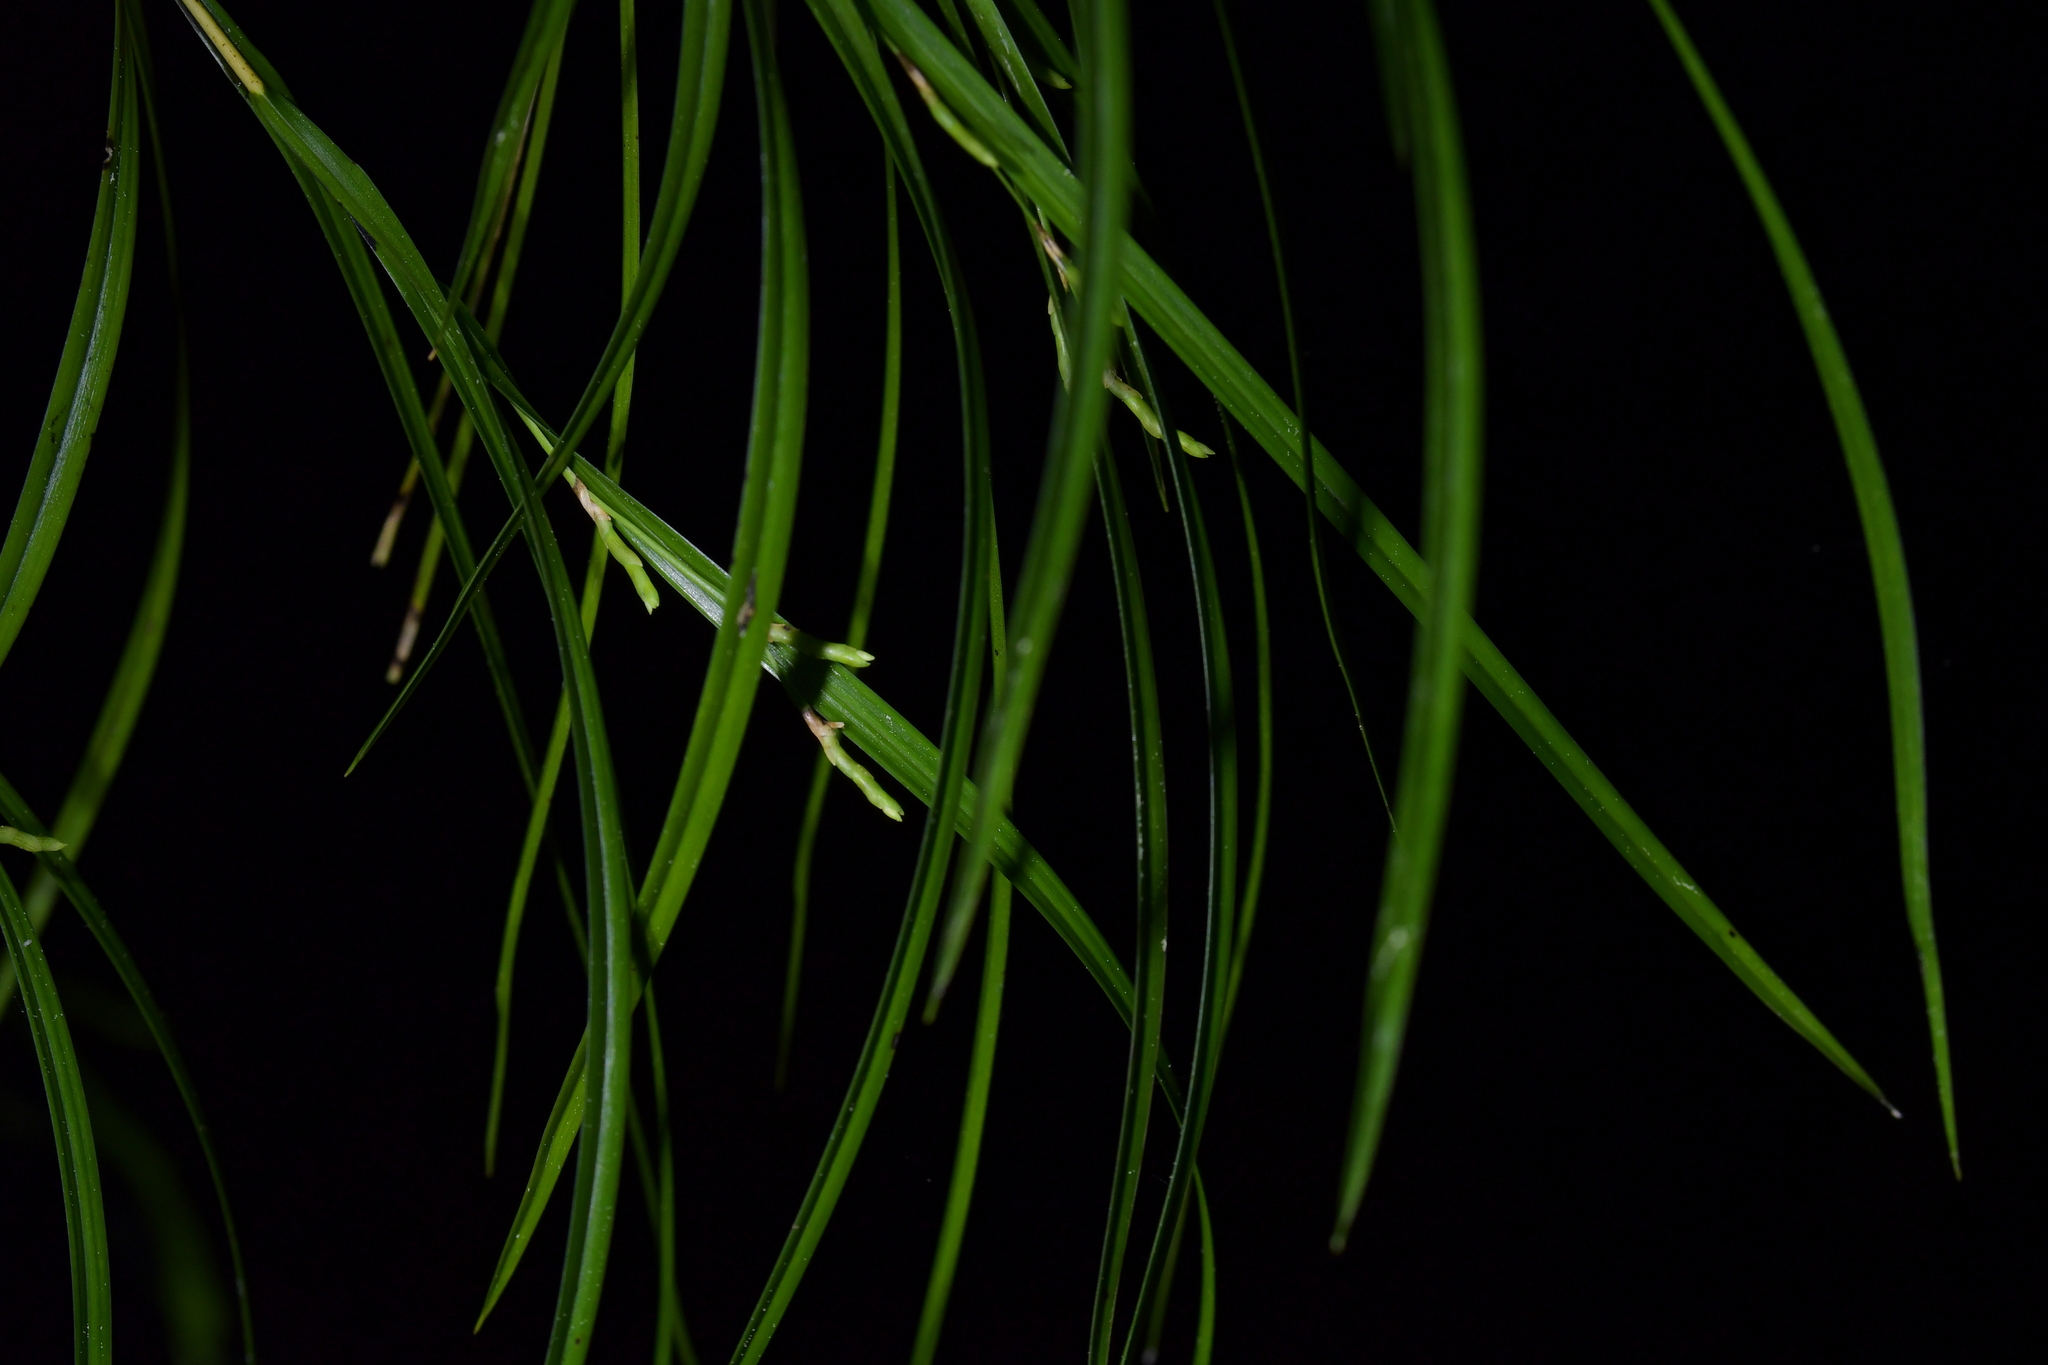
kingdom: Plantae
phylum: Tracheophyta
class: Liliopsida
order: Asparagales
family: Orchidaceae
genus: Earina
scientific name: Earina mucronata
